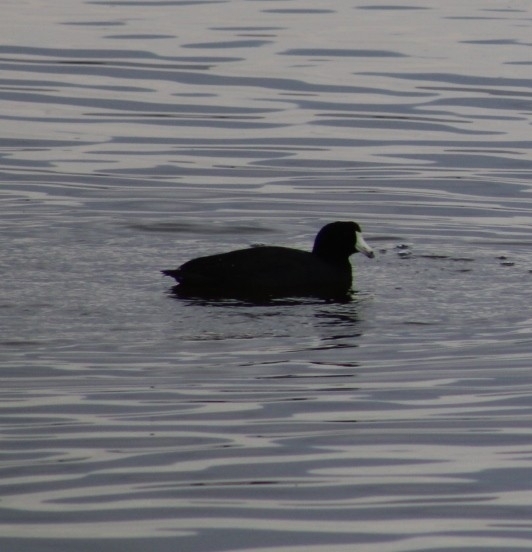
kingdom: Animalia
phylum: Chordata
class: Aves
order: Gruiformes
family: Rallidae
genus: Fulica
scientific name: Fulica americana
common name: American coot
